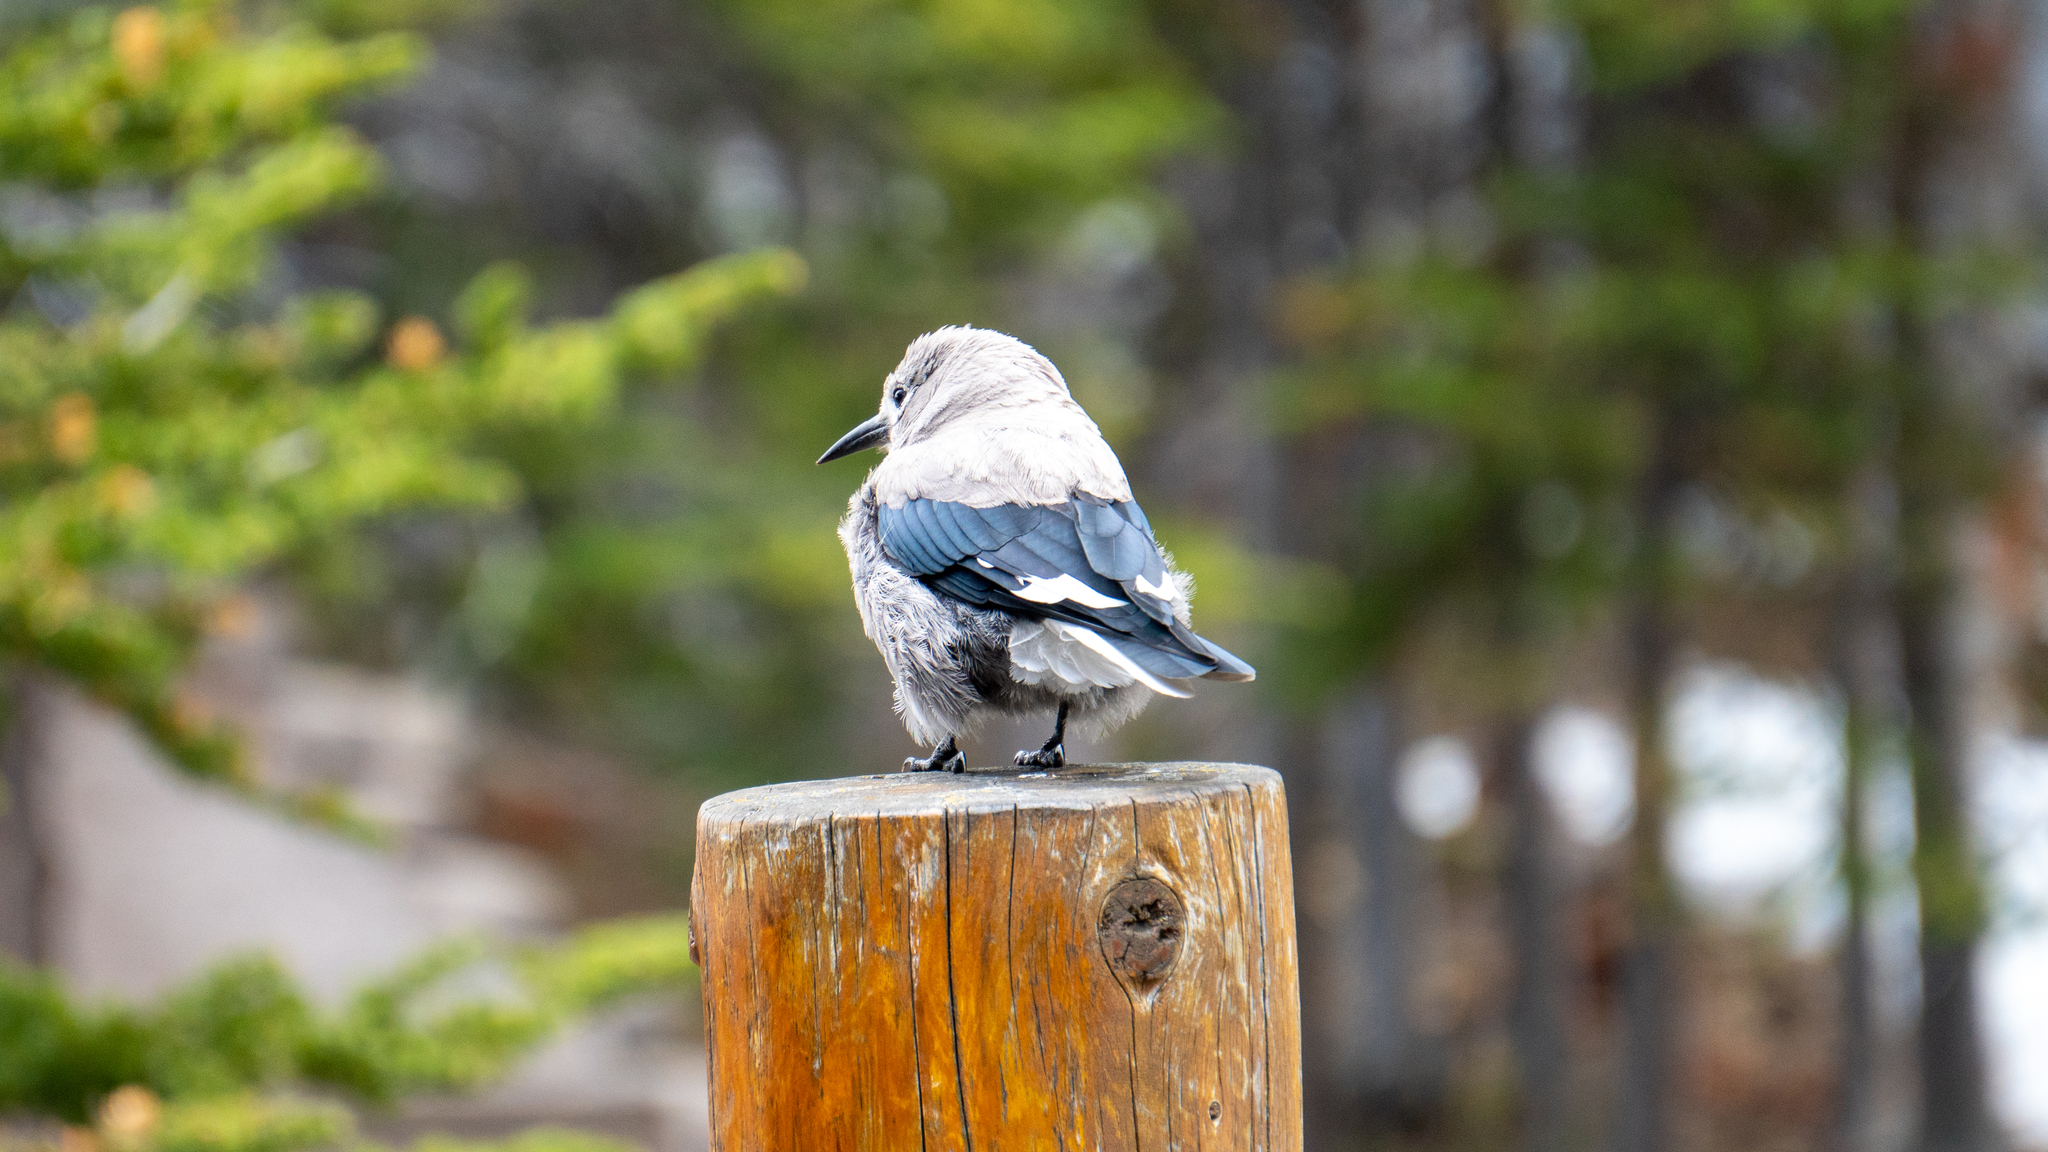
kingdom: Animalia
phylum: Chordata
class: Aves
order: Passeriformes
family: Corvidae
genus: Nucifraga
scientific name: Nucifraga columbiana
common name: Clark's nutcracker
